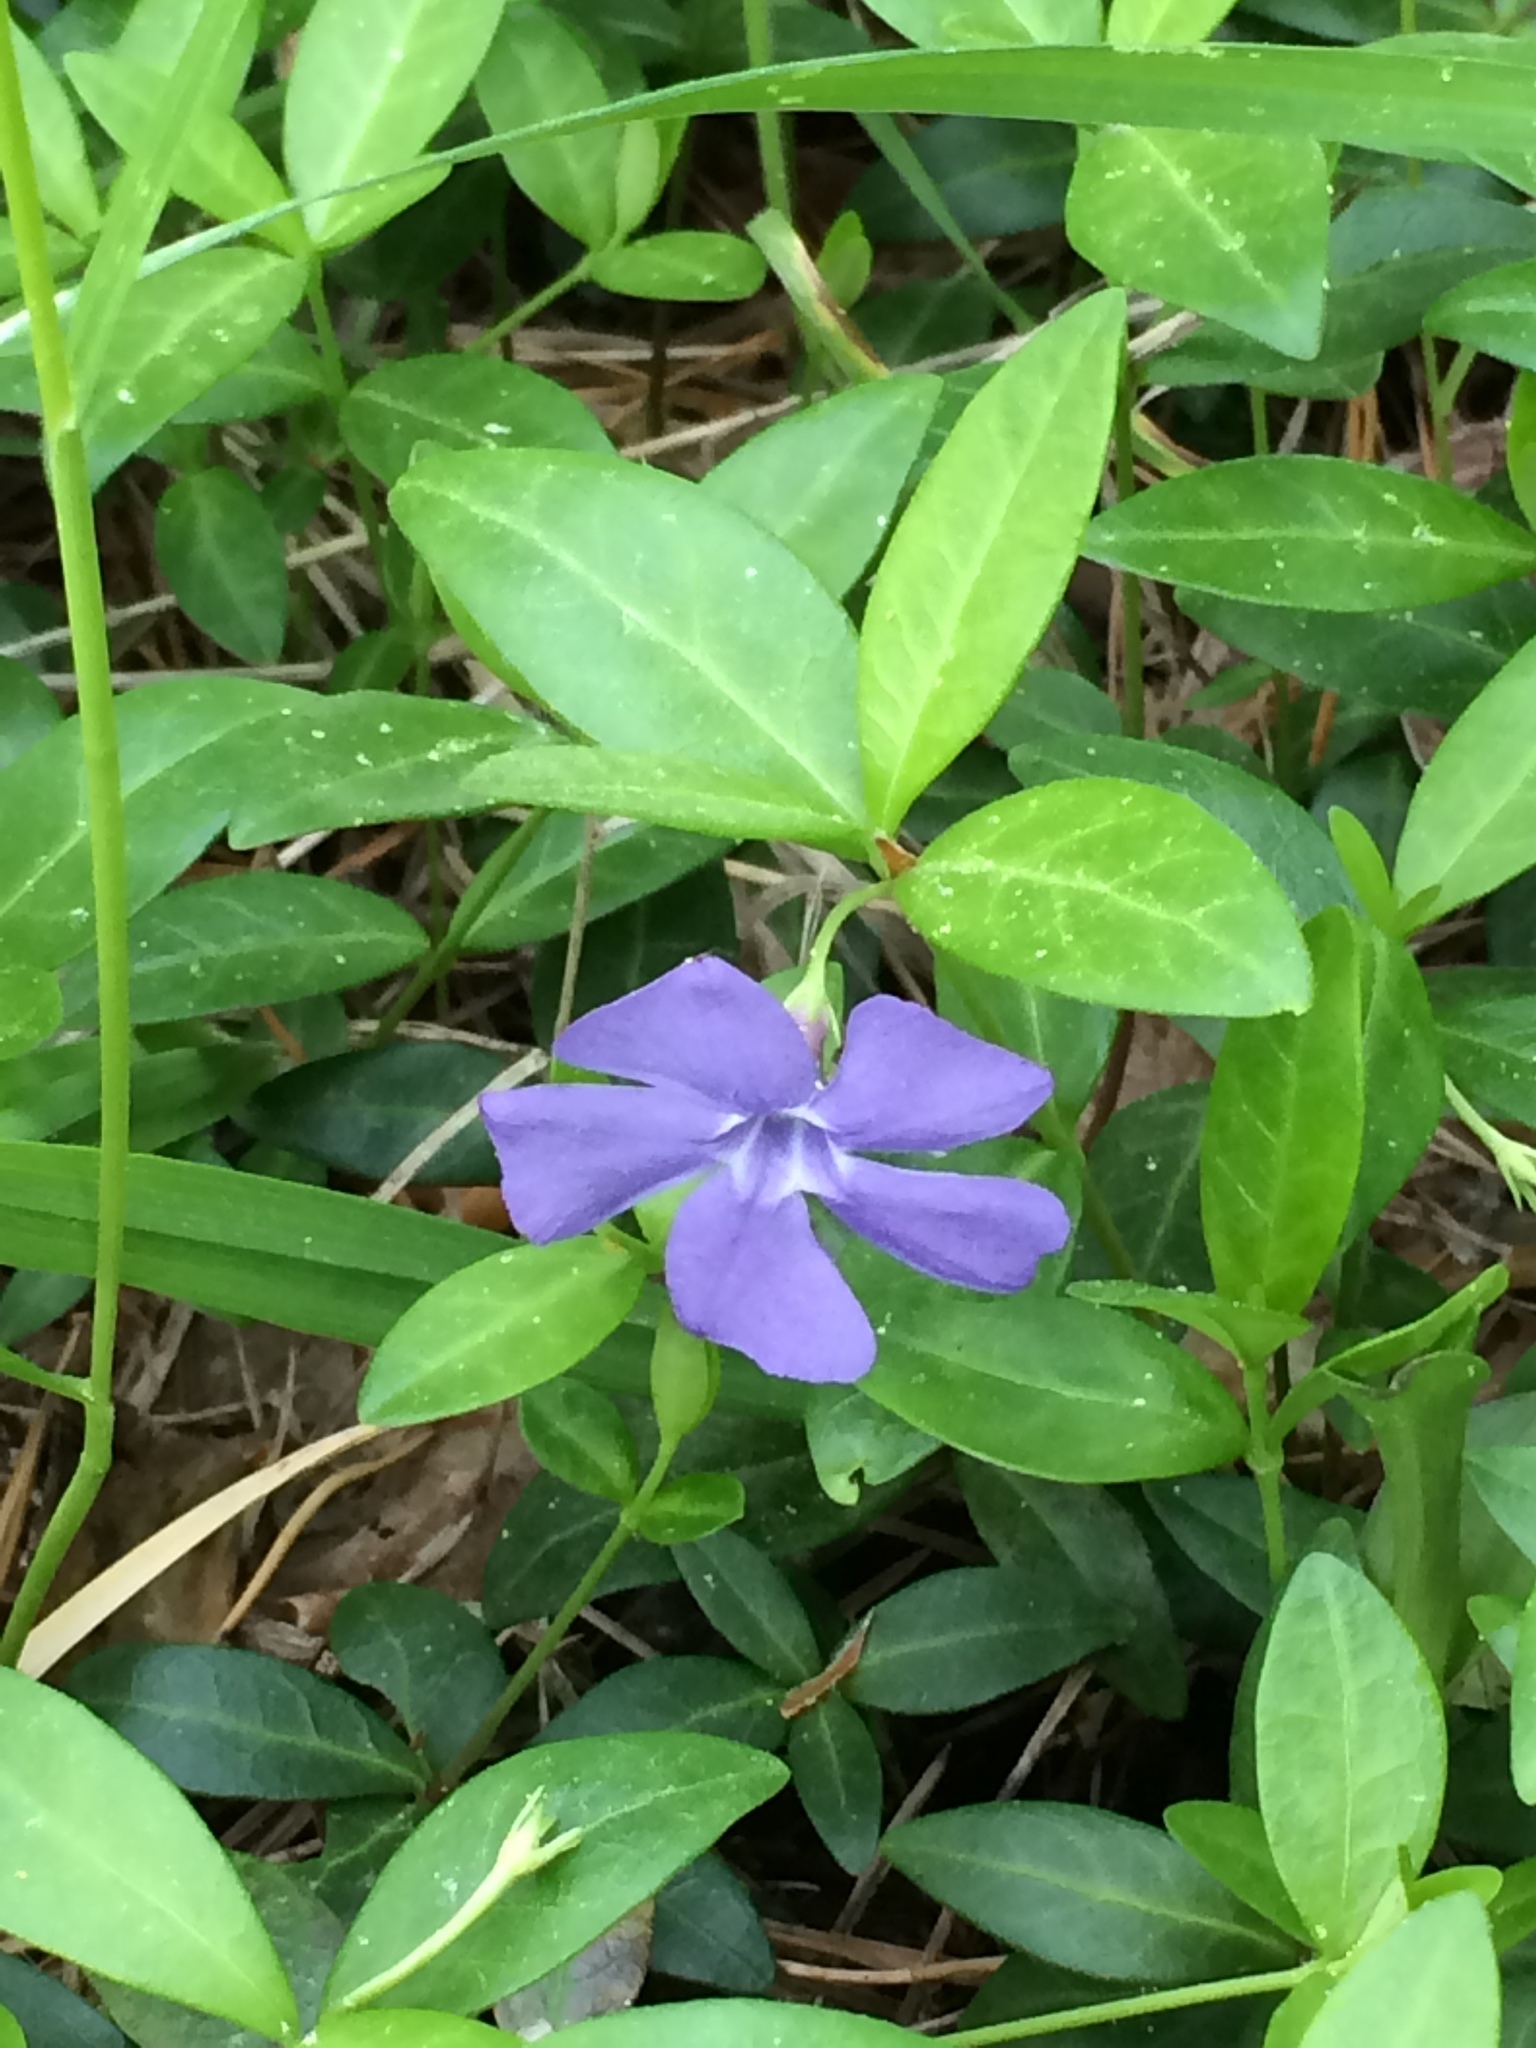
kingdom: Plantae
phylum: Tracheophyta
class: Magnoliopsida
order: Gentianales
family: Apocynaceae
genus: Vinca
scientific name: Vinca minor
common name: Lesser periwinkle
